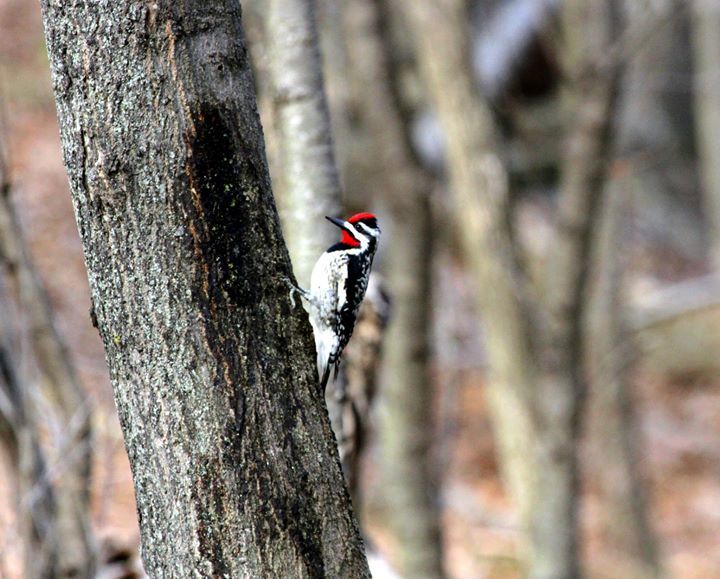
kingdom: Animalia
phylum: Chordata
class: Aves
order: Piciformes
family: Picidae
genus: Sphyrapicus
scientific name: Sphyrapicus varius
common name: Yellow-bellied sapsucker
